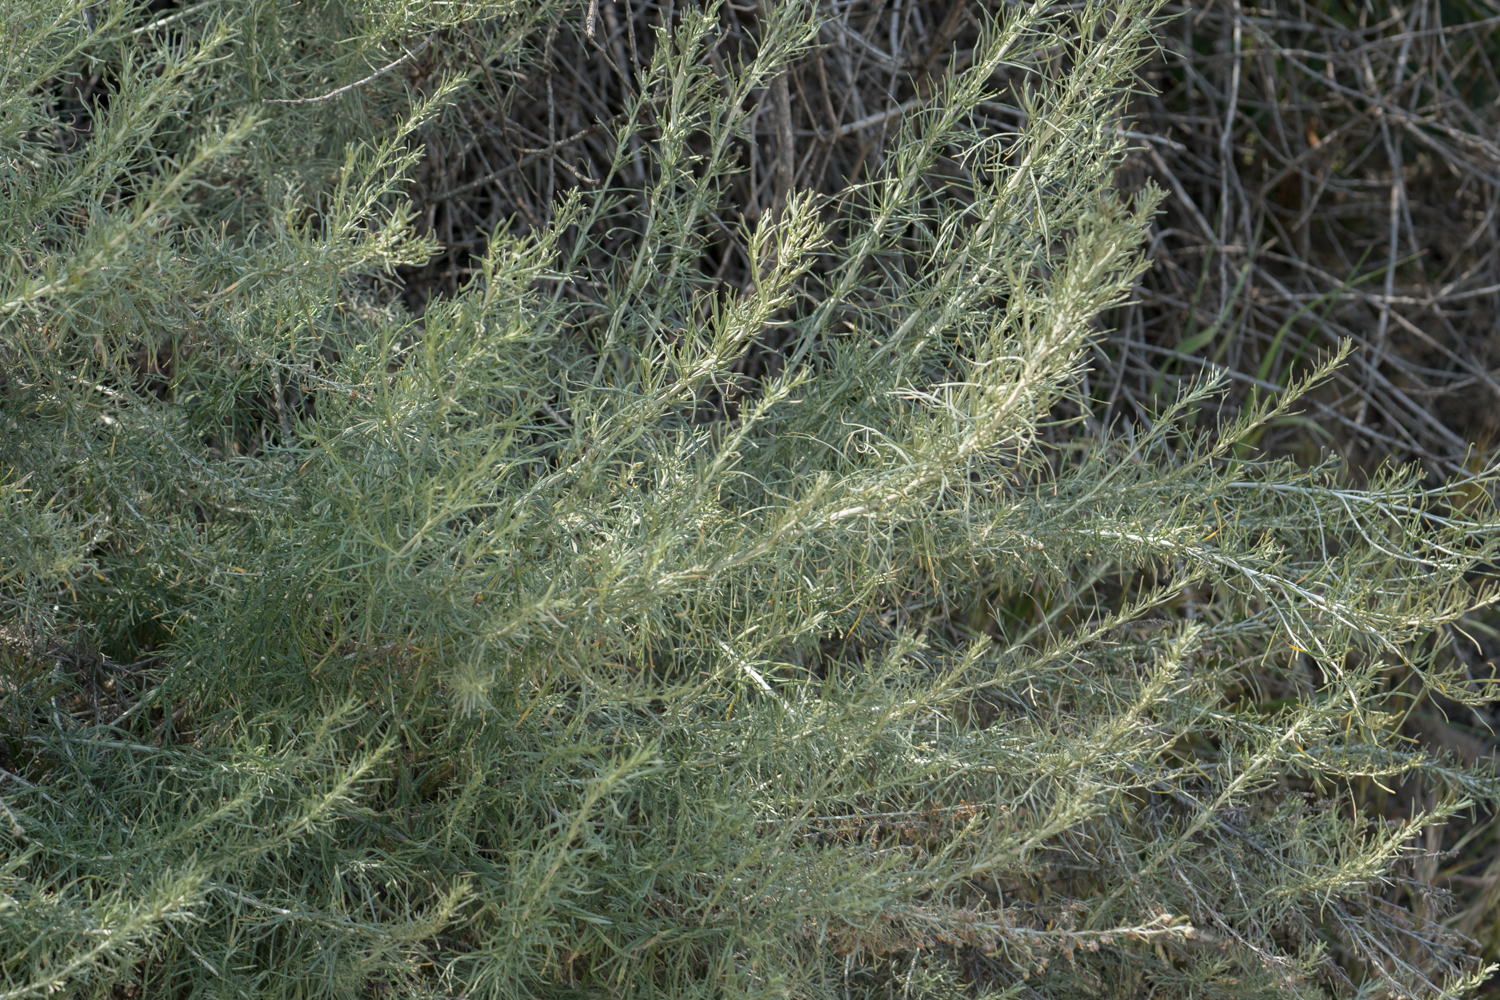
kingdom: Plantae
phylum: Tracheophyta
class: Magnoliopsida
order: Asterales
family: Asteraceae
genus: Artemisia
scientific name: Artemisia californica
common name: California sagebrush
